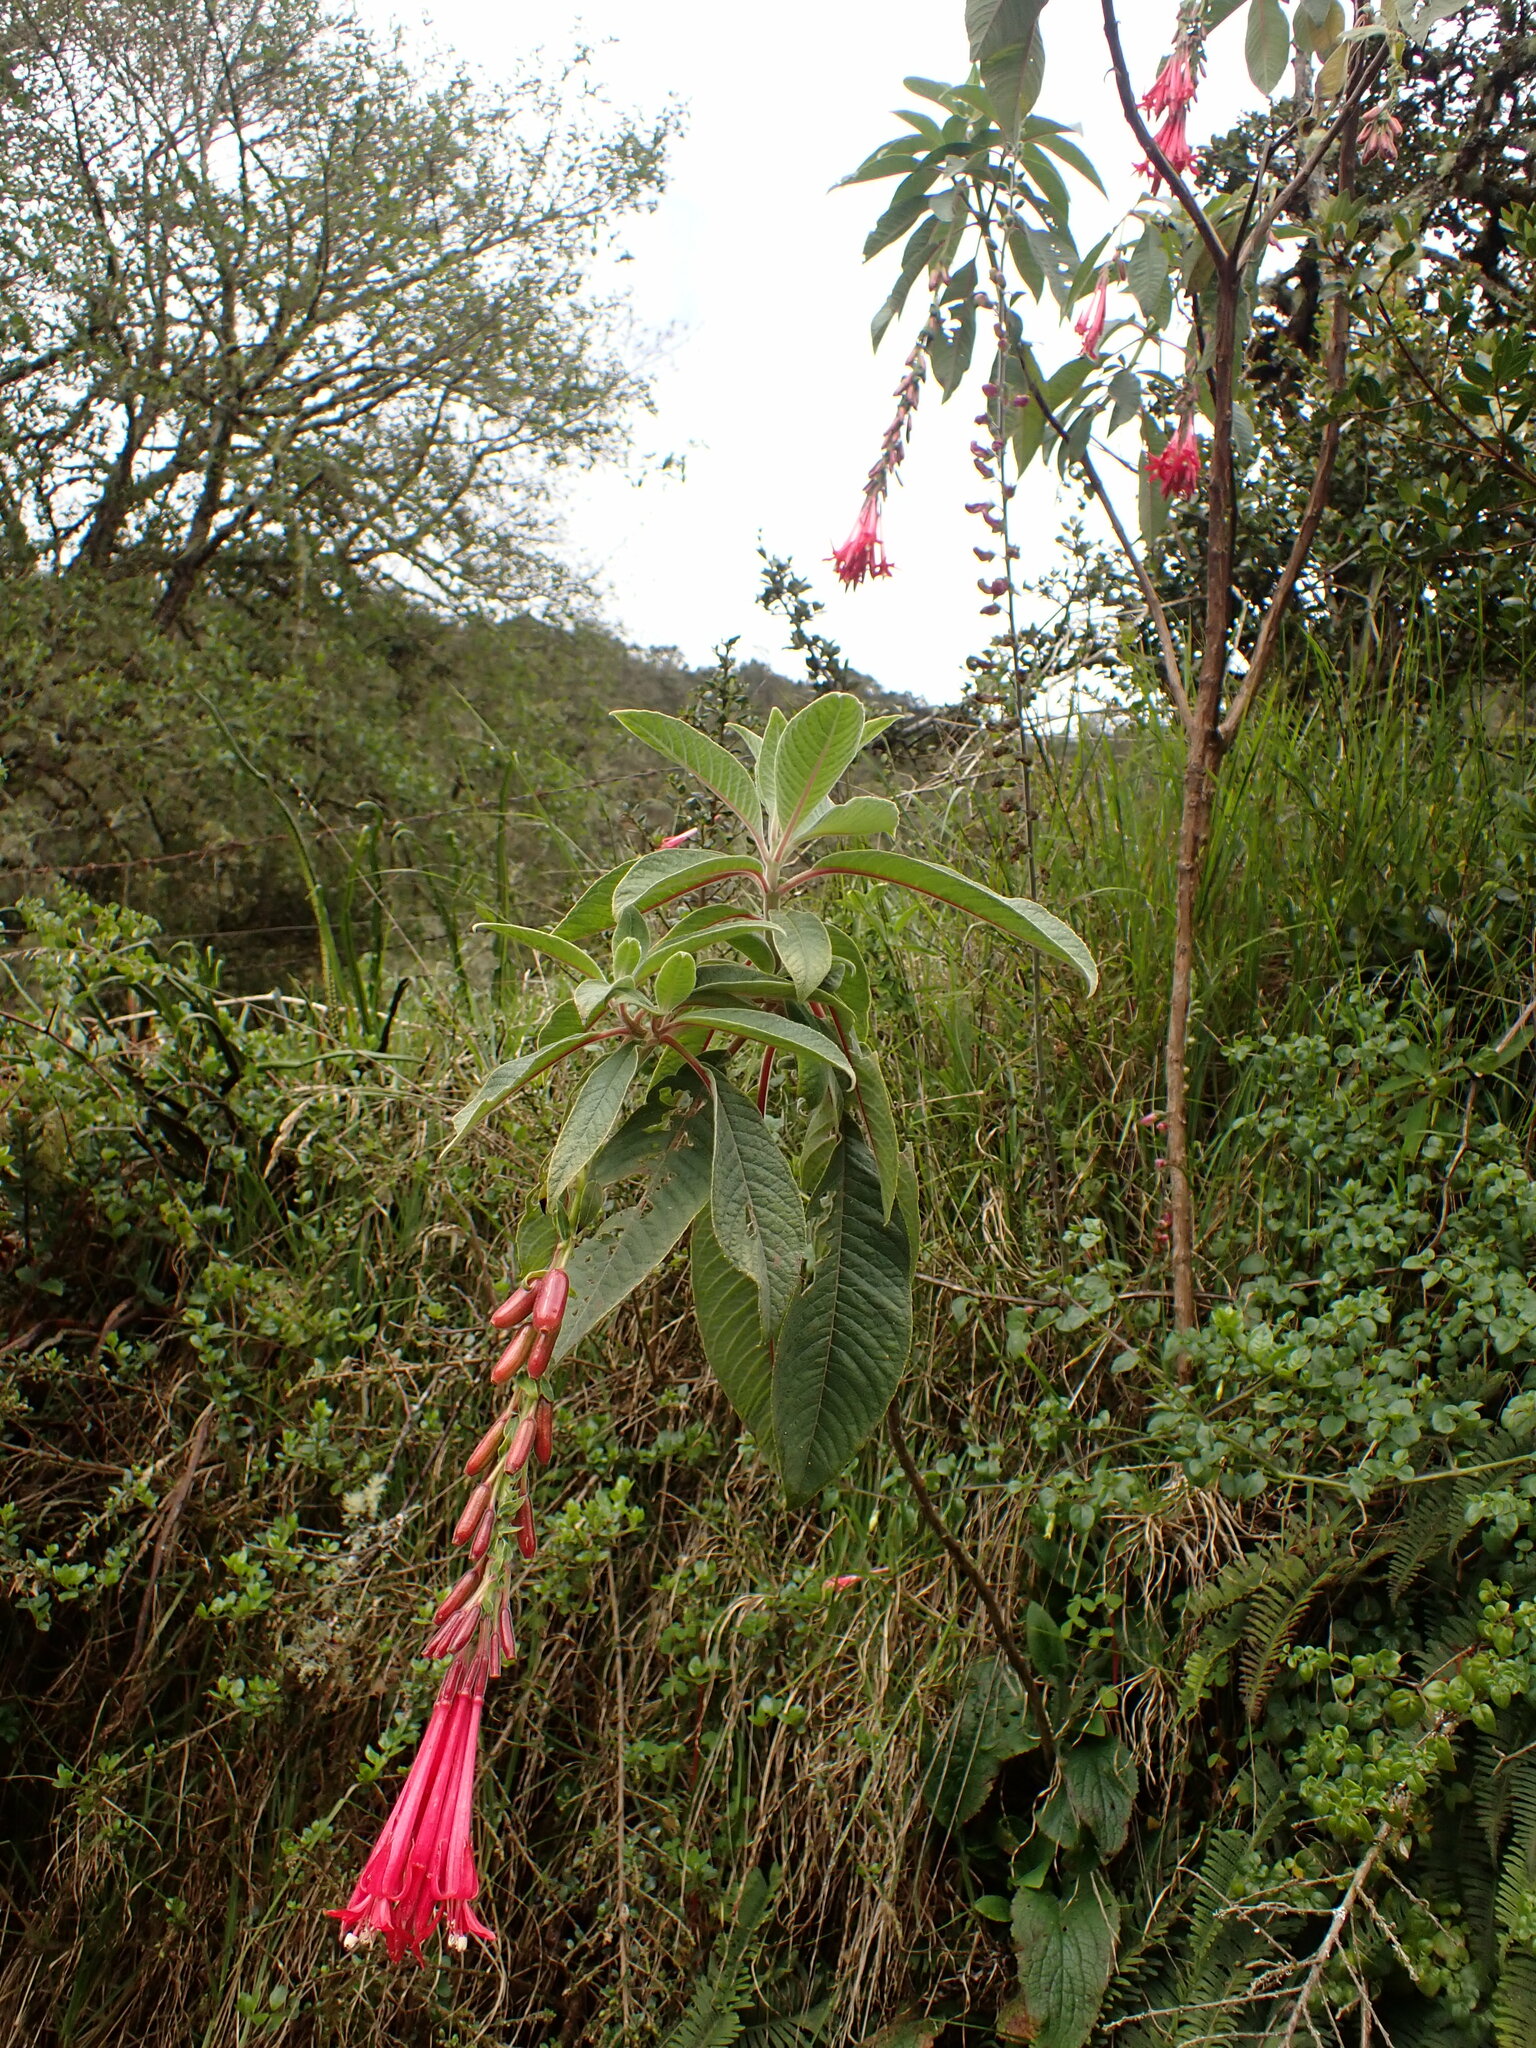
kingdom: Plantae
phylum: Tracheophyta
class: Magnoliopsida
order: Myrtales
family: Onagraceae
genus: Fuchsia
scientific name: Fuchsia boliviana
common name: Bolivian fuchsia
